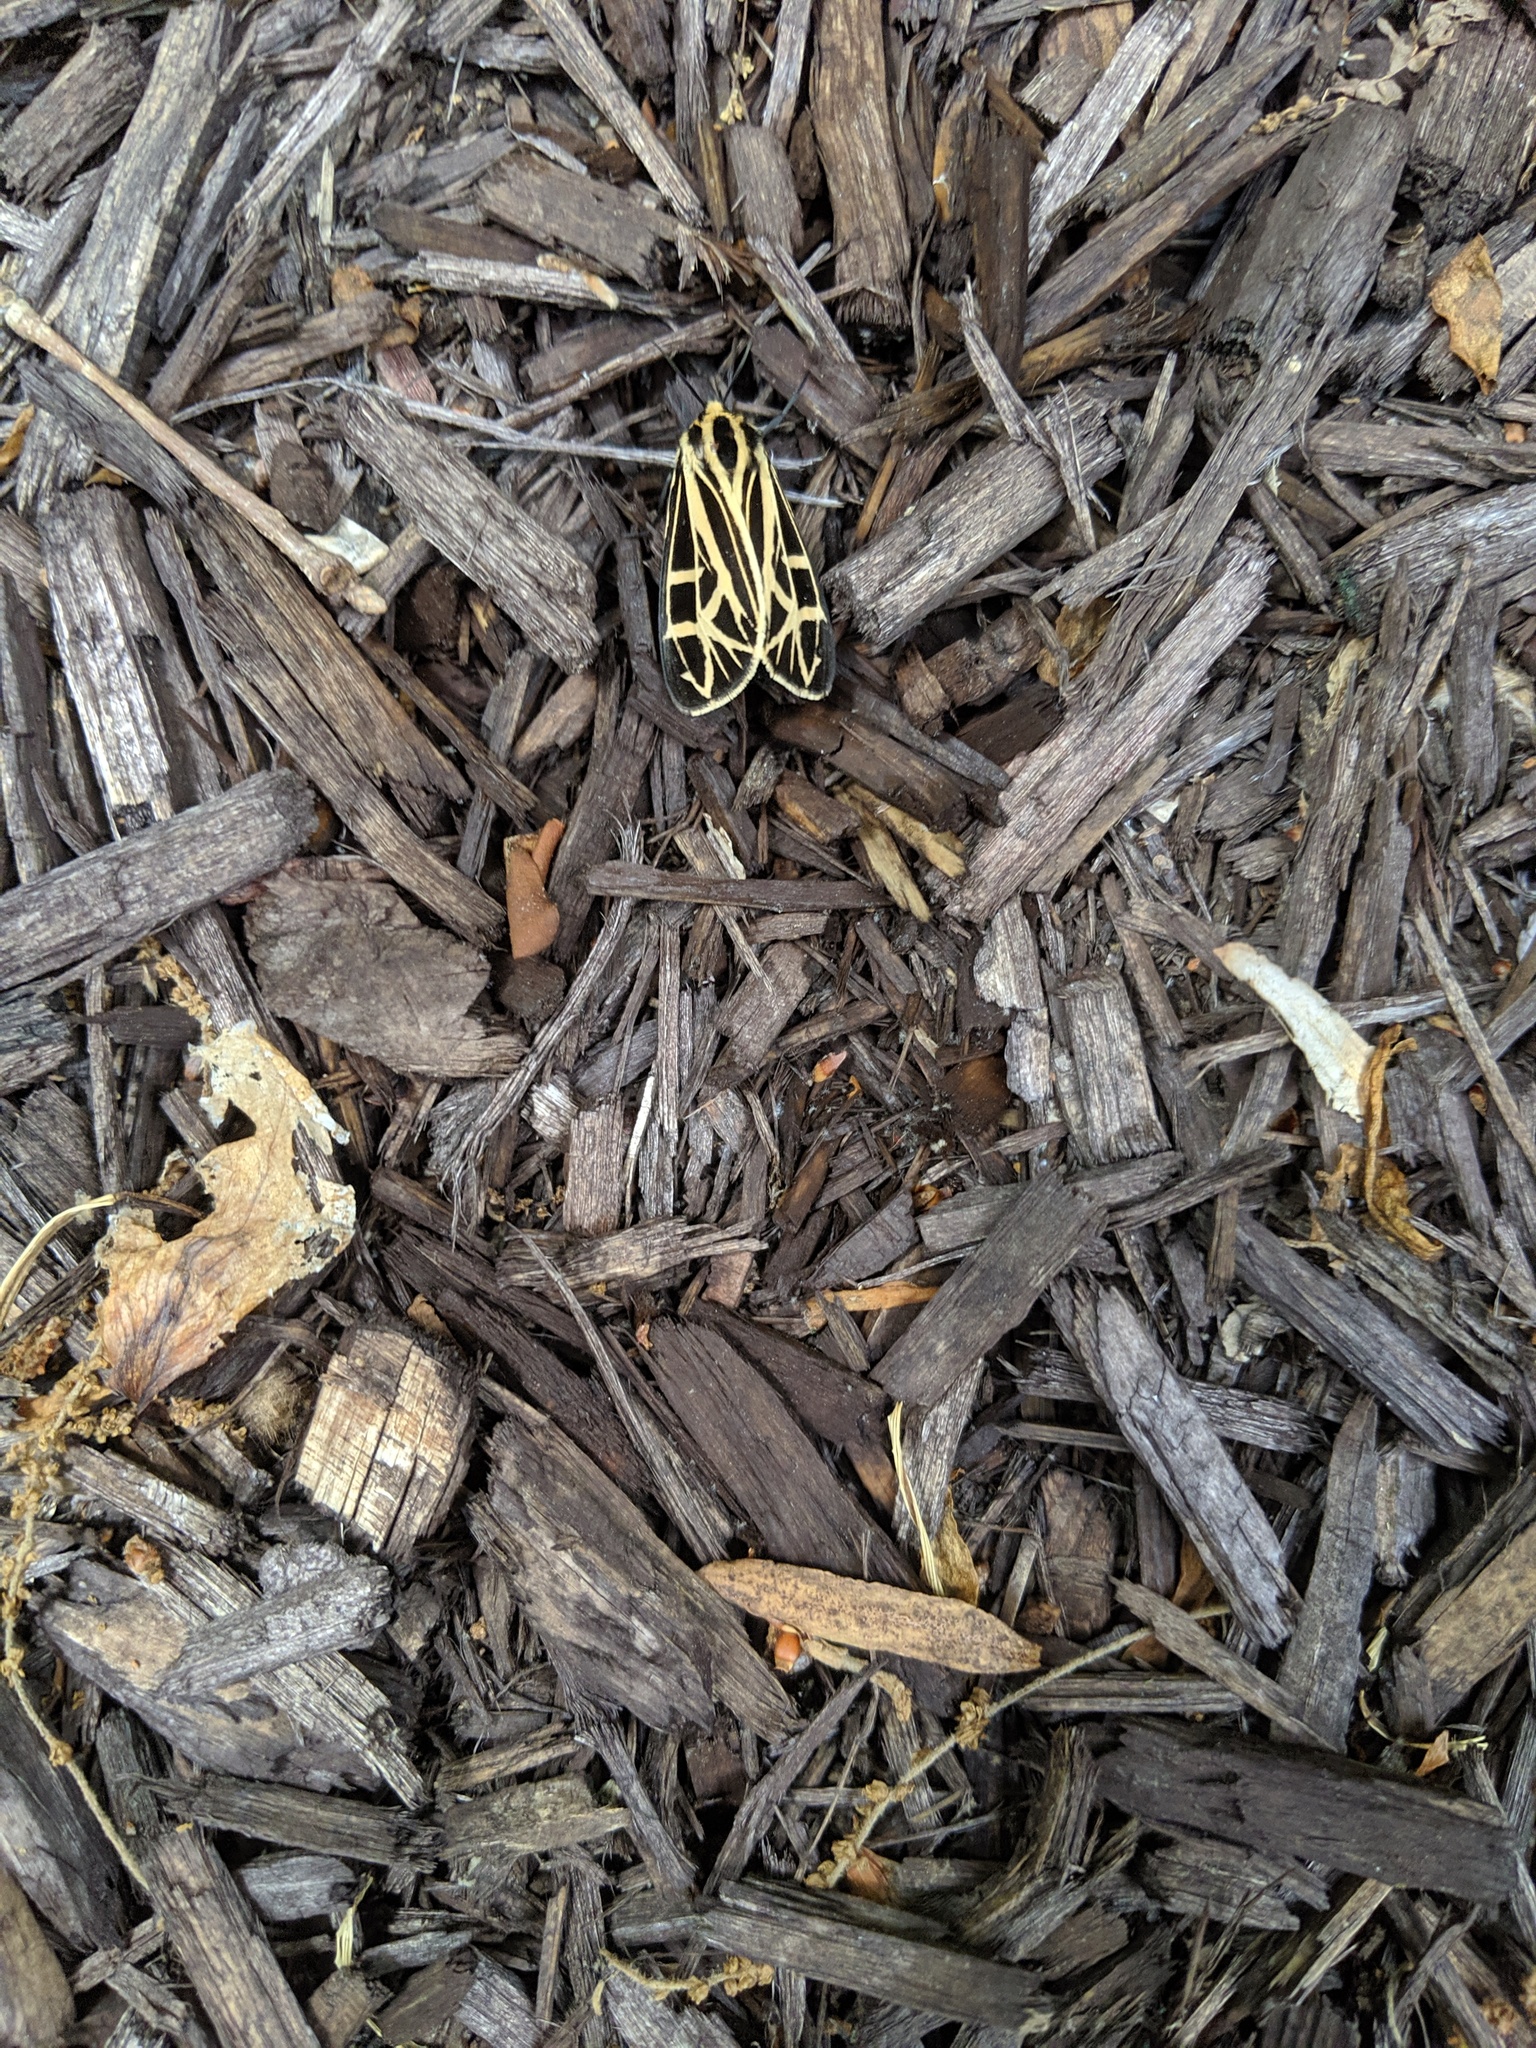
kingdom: Animalia
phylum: Arthropoda
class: Insecta
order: Lepidoptera
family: Erebidae
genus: Apantesis
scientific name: Apantesis
